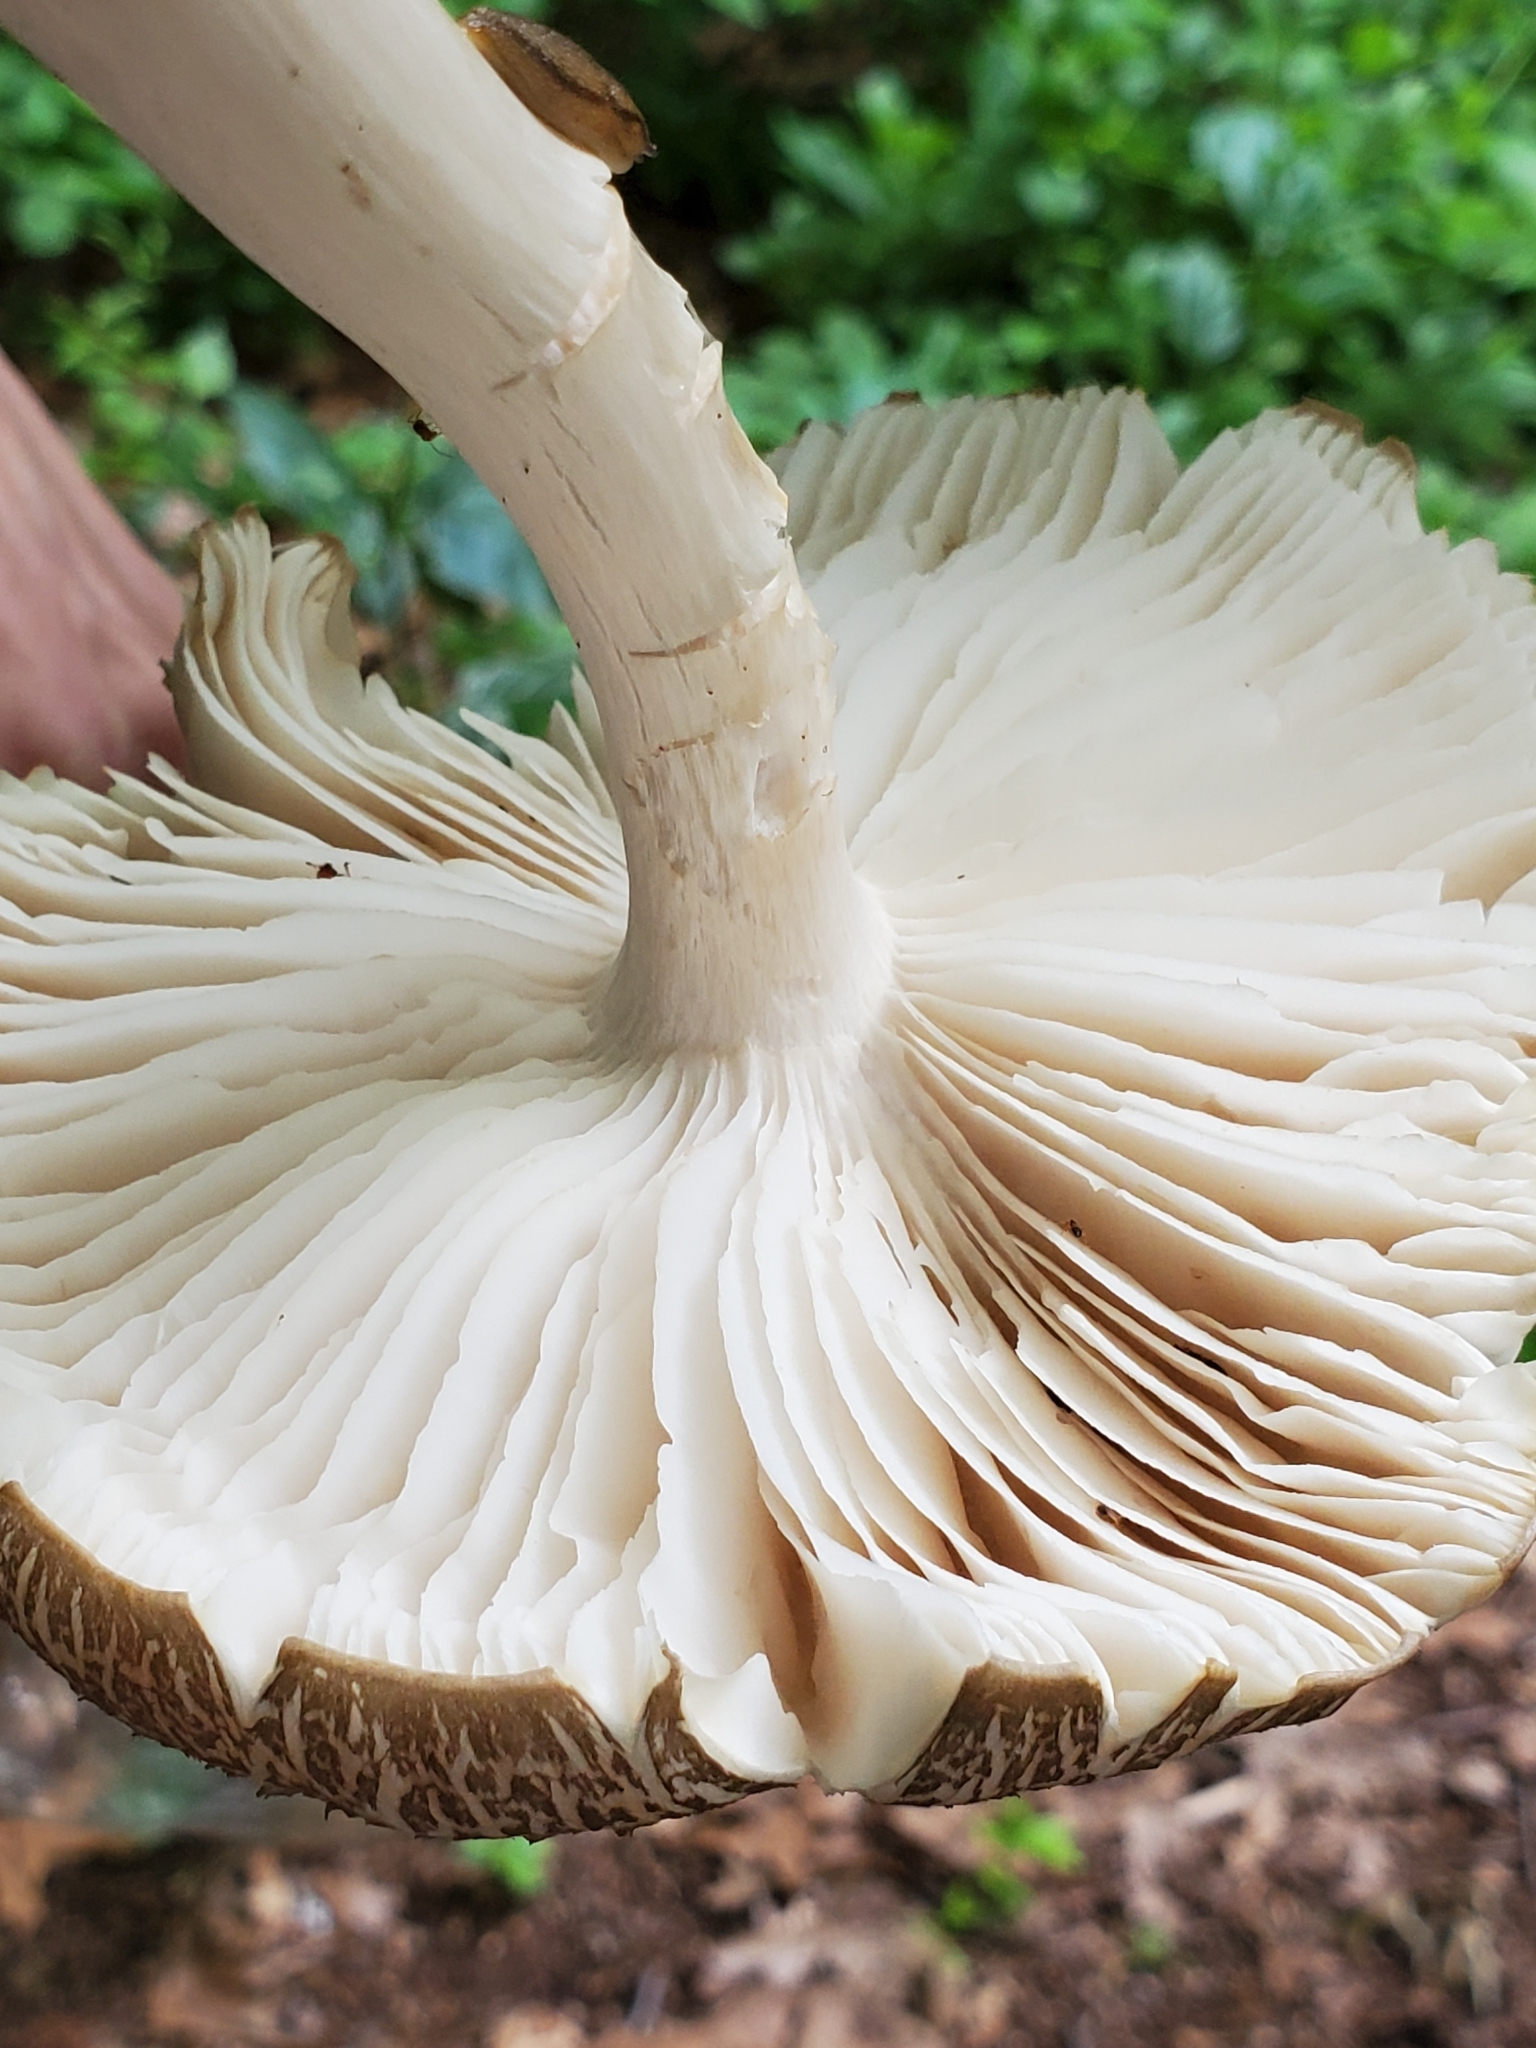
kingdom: Fungi
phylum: Basidiomycota
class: Agaricomycetes
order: Agaricales
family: Tricholomataceae
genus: Megacollybia
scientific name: Megacollybia rodmanii
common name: Eastern american platterful mushroom
